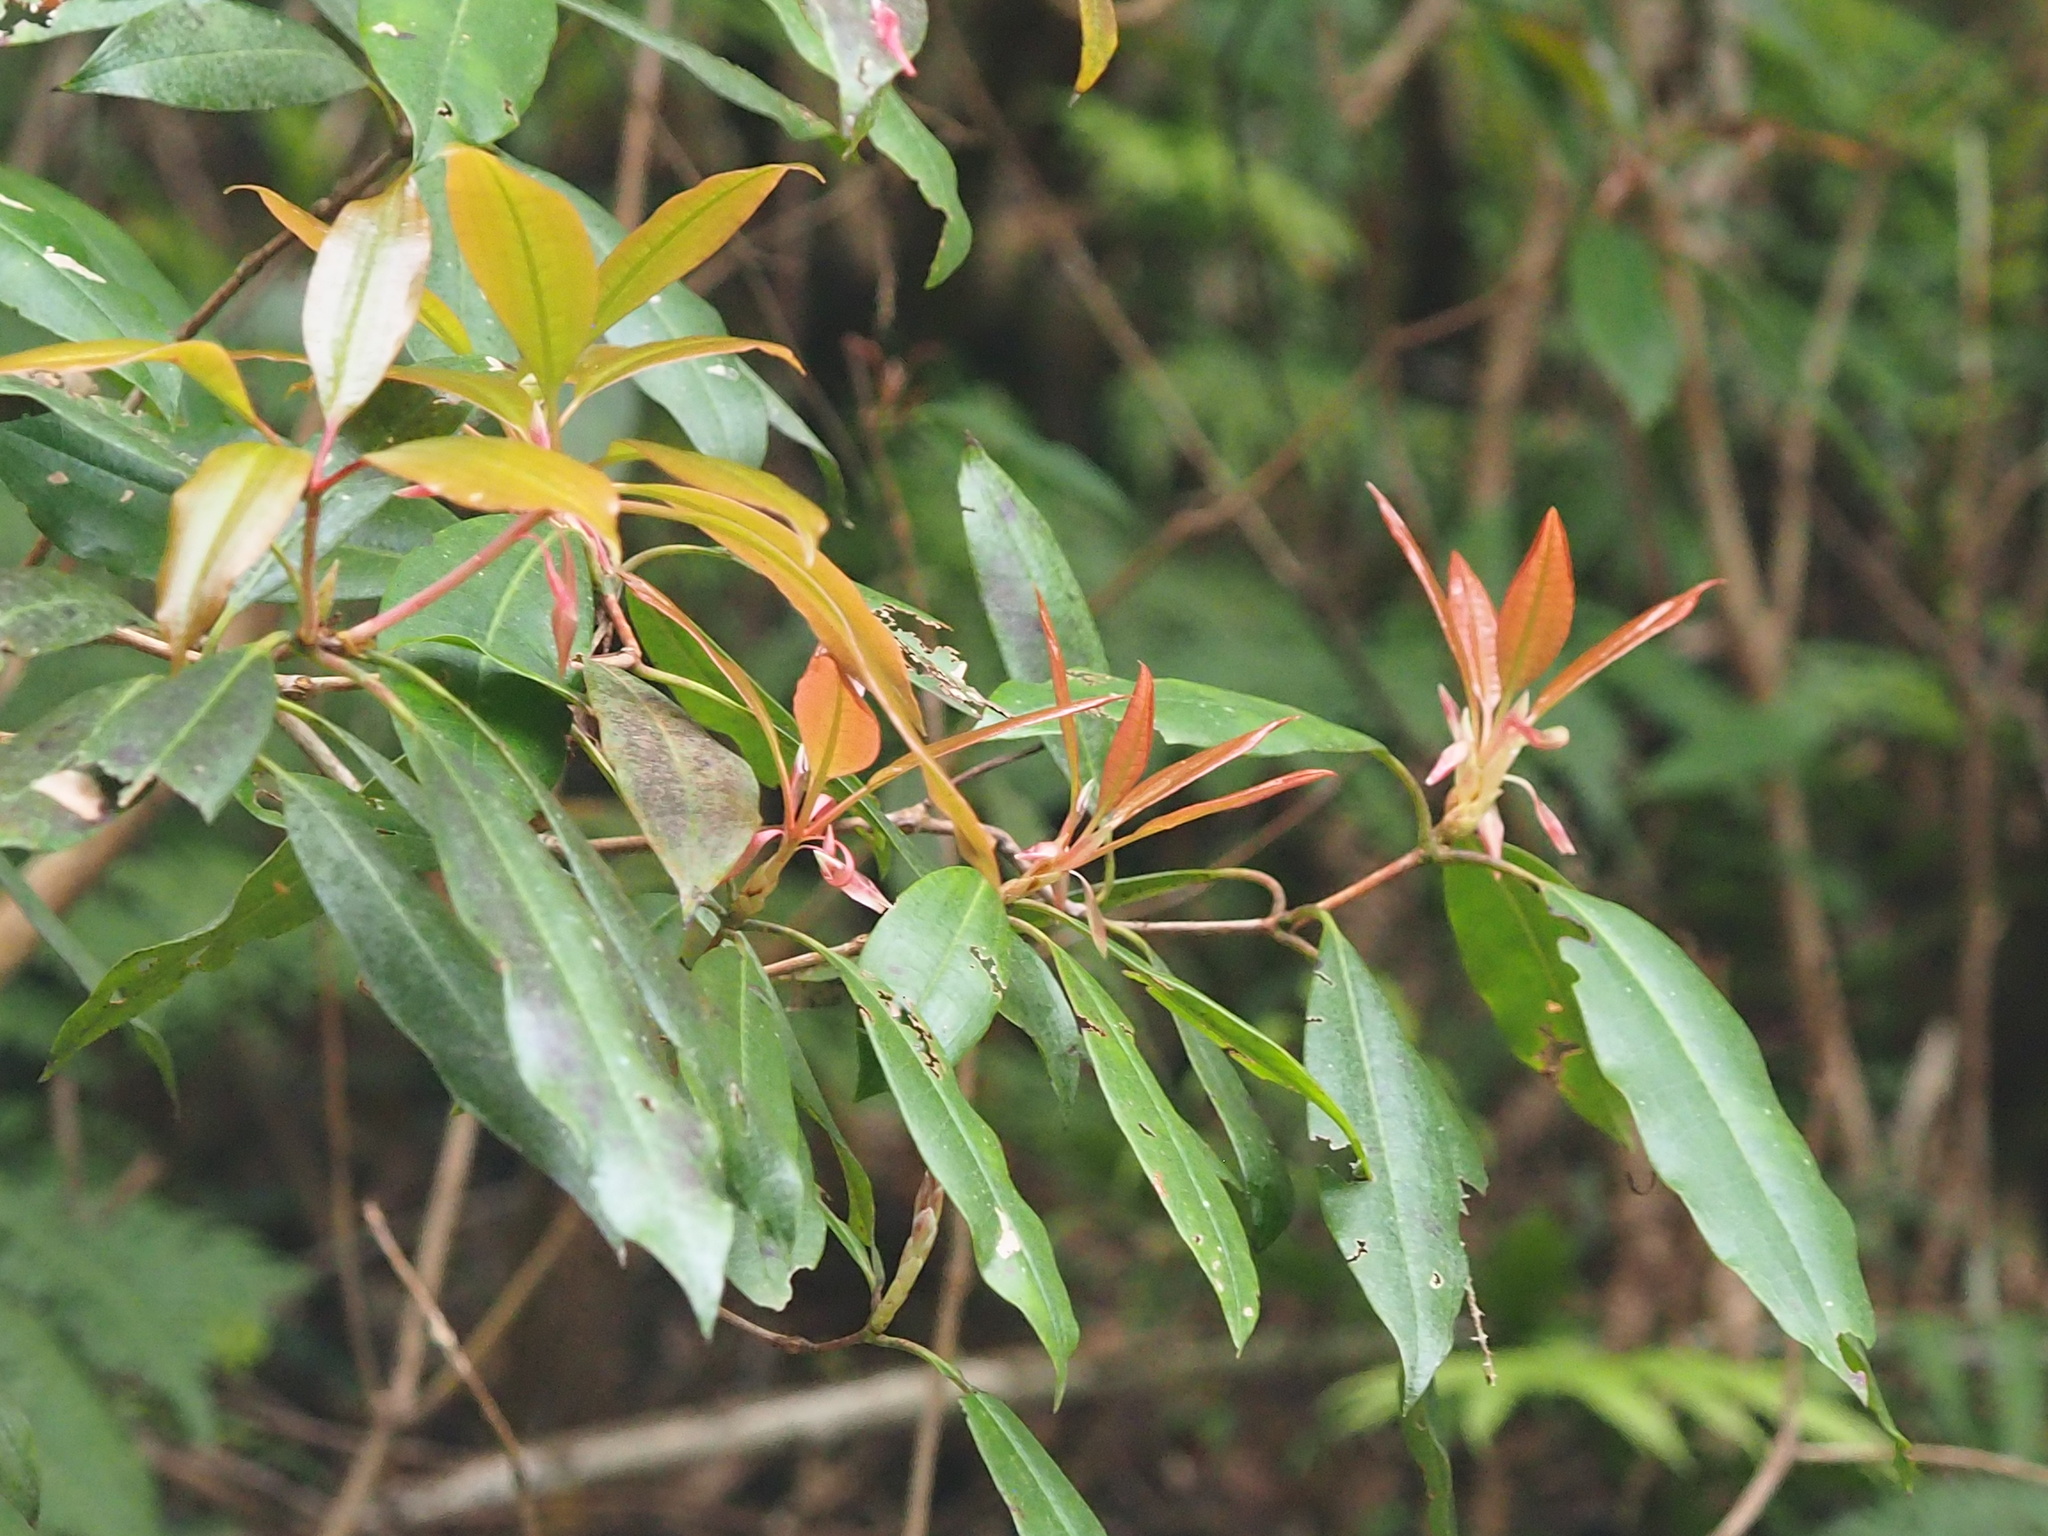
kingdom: Plantae
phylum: Tracheophyta
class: Magnoliopsida
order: Ericales
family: Ericaceae
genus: Rhododendron
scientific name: Rhododendron latoucheae
